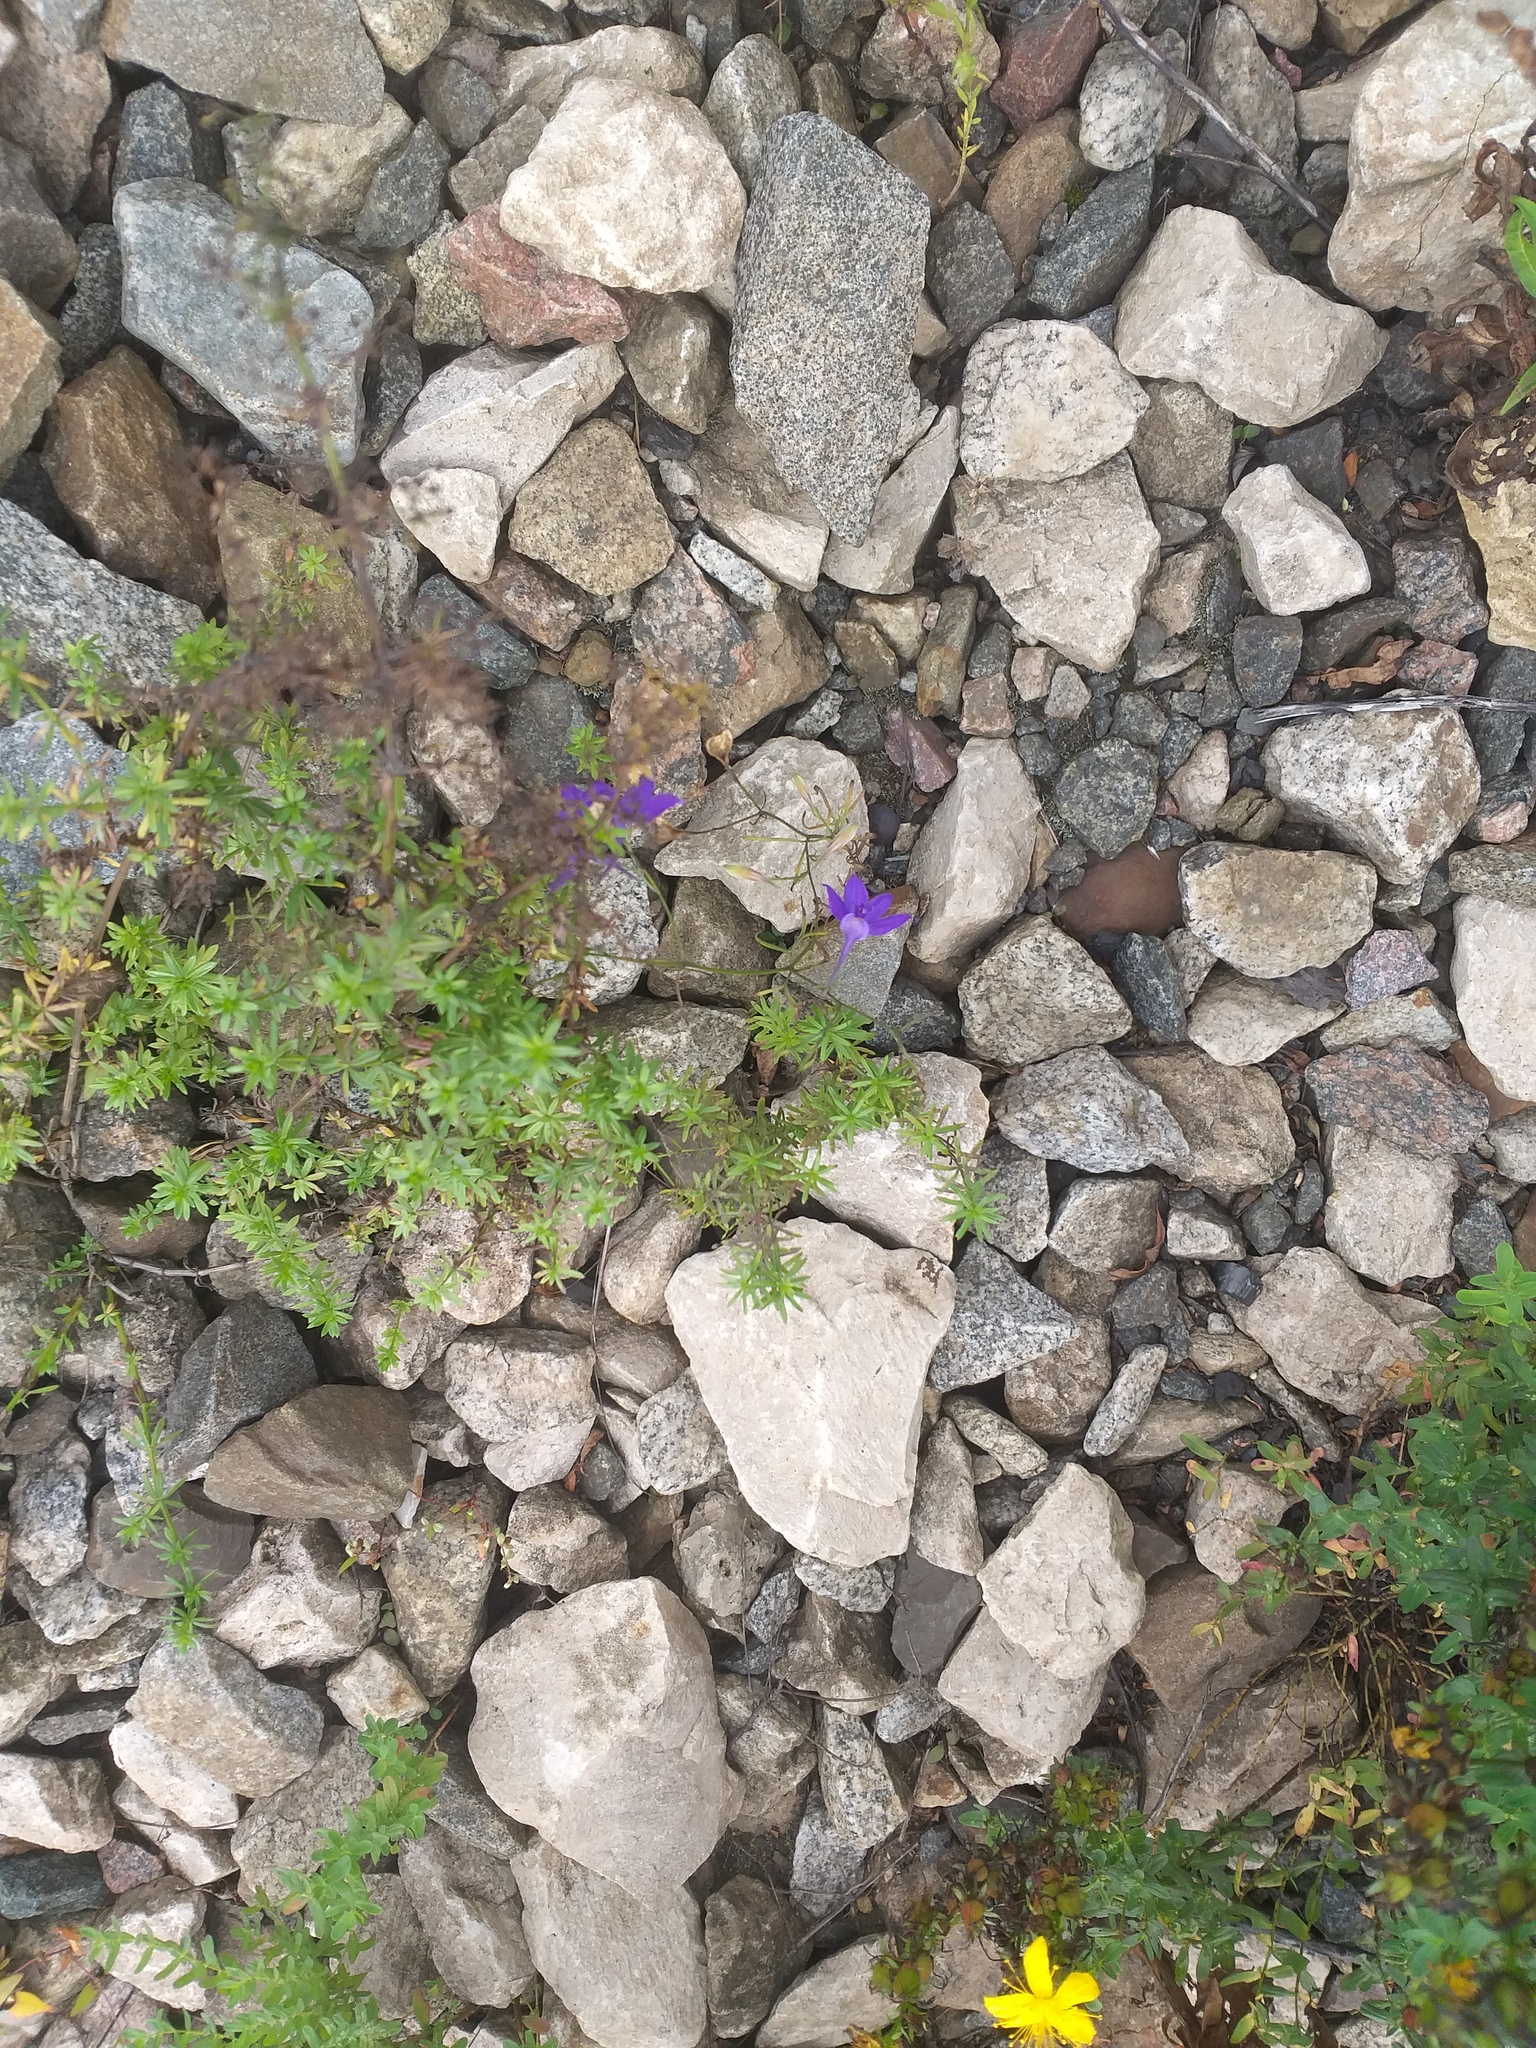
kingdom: Plantae
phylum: Tracheophyta
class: Magnoliopsida
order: Ranunculales
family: Ranunculaceae
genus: Delphinium
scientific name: Delphinium consolida
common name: Branching larkspur
